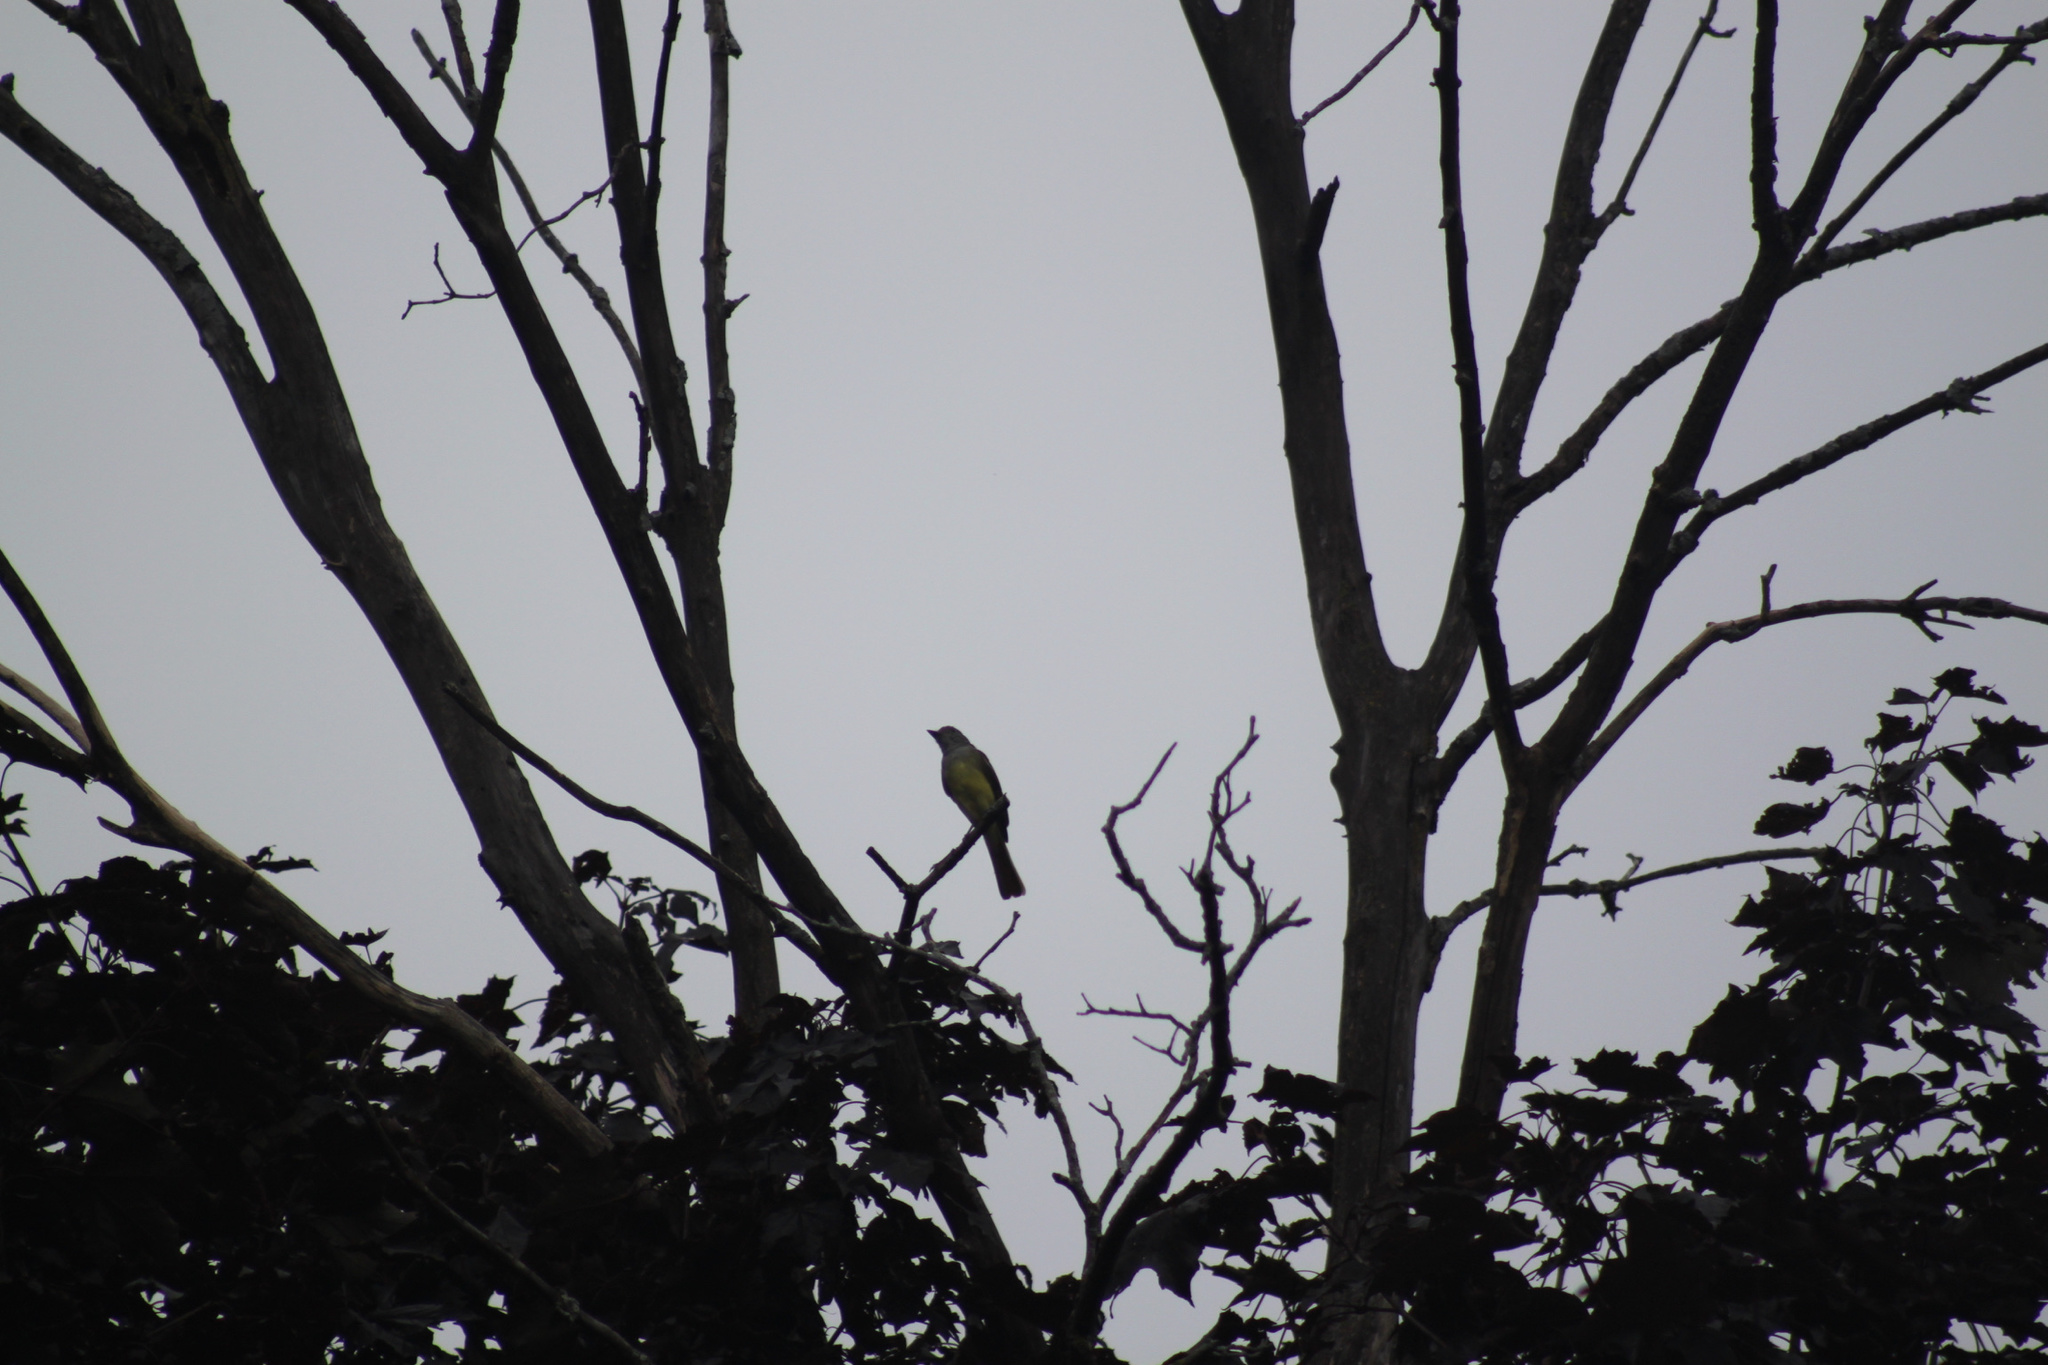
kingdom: Animalia
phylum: Chordata
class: Aves
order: Passeriformes
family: Tyrannidae
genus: Myiarchus
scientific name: Myiarchus crinitus
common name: Great crested flycatcher
